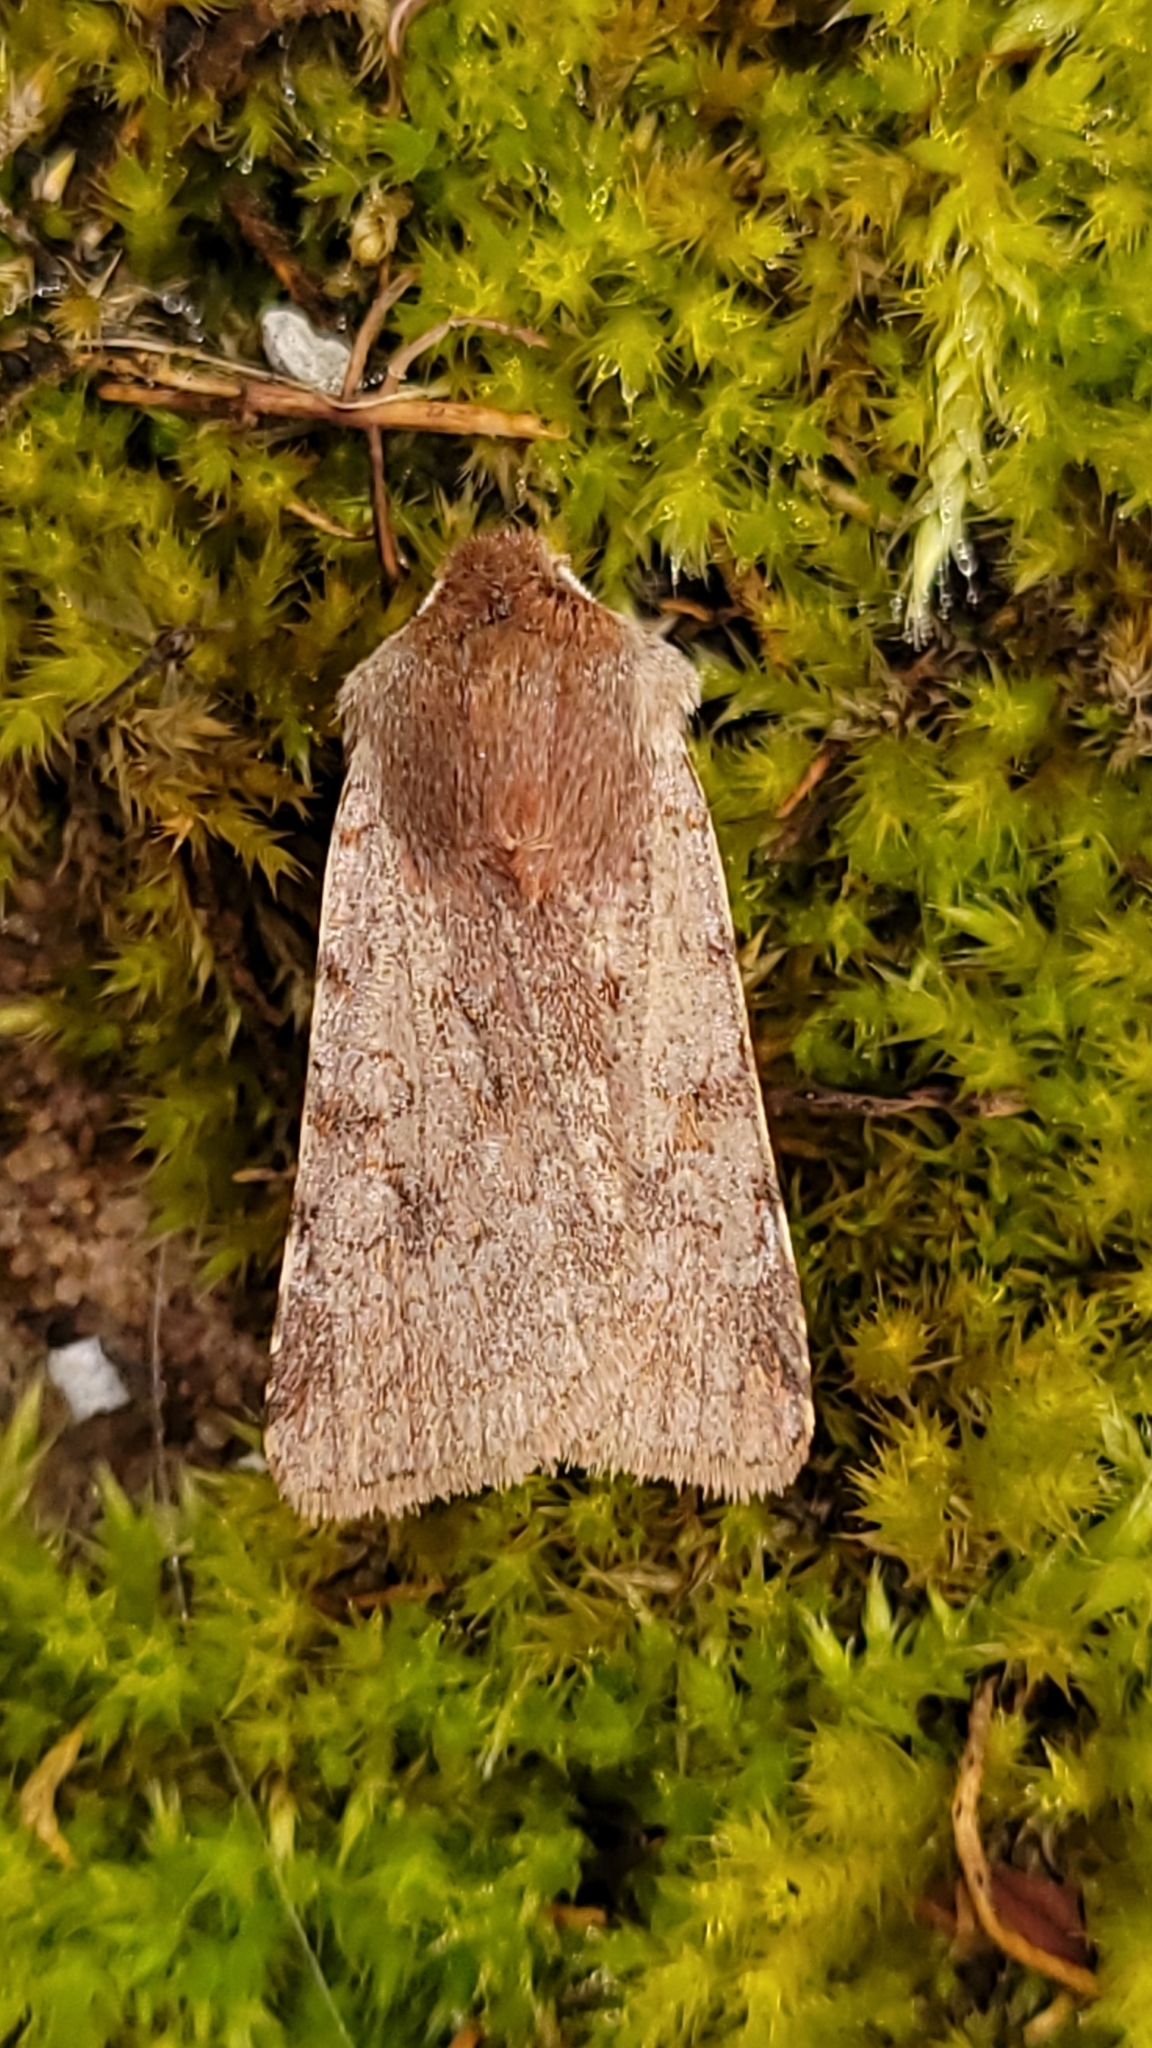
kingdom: Animalia
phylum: Arthropoda
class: Insecta
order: Lepidoptera
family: Noctuidae
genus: Cerastis
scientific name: Cerastis rubricosa
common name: Red chestnut
